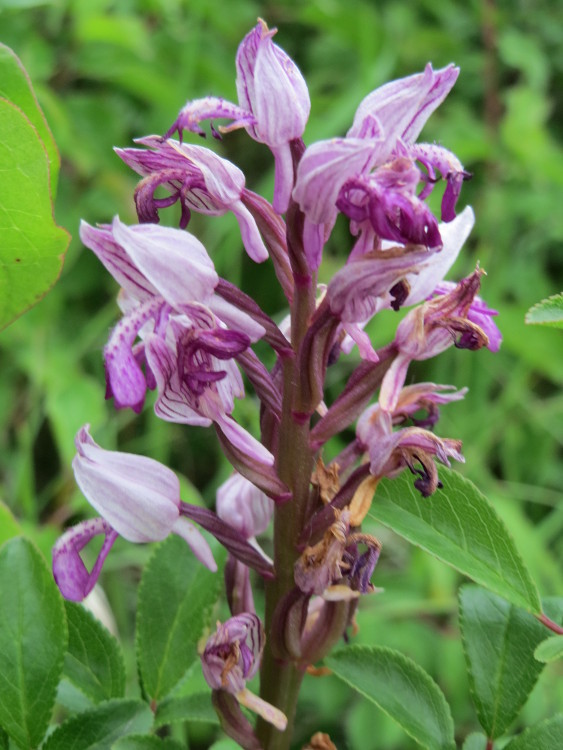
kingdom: Plantae
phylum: Tracheophyta
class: Liliopsida
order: Asparagales
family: Orchidaceae
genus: Orchis
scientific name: Orchis militaris
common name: Military orchid
